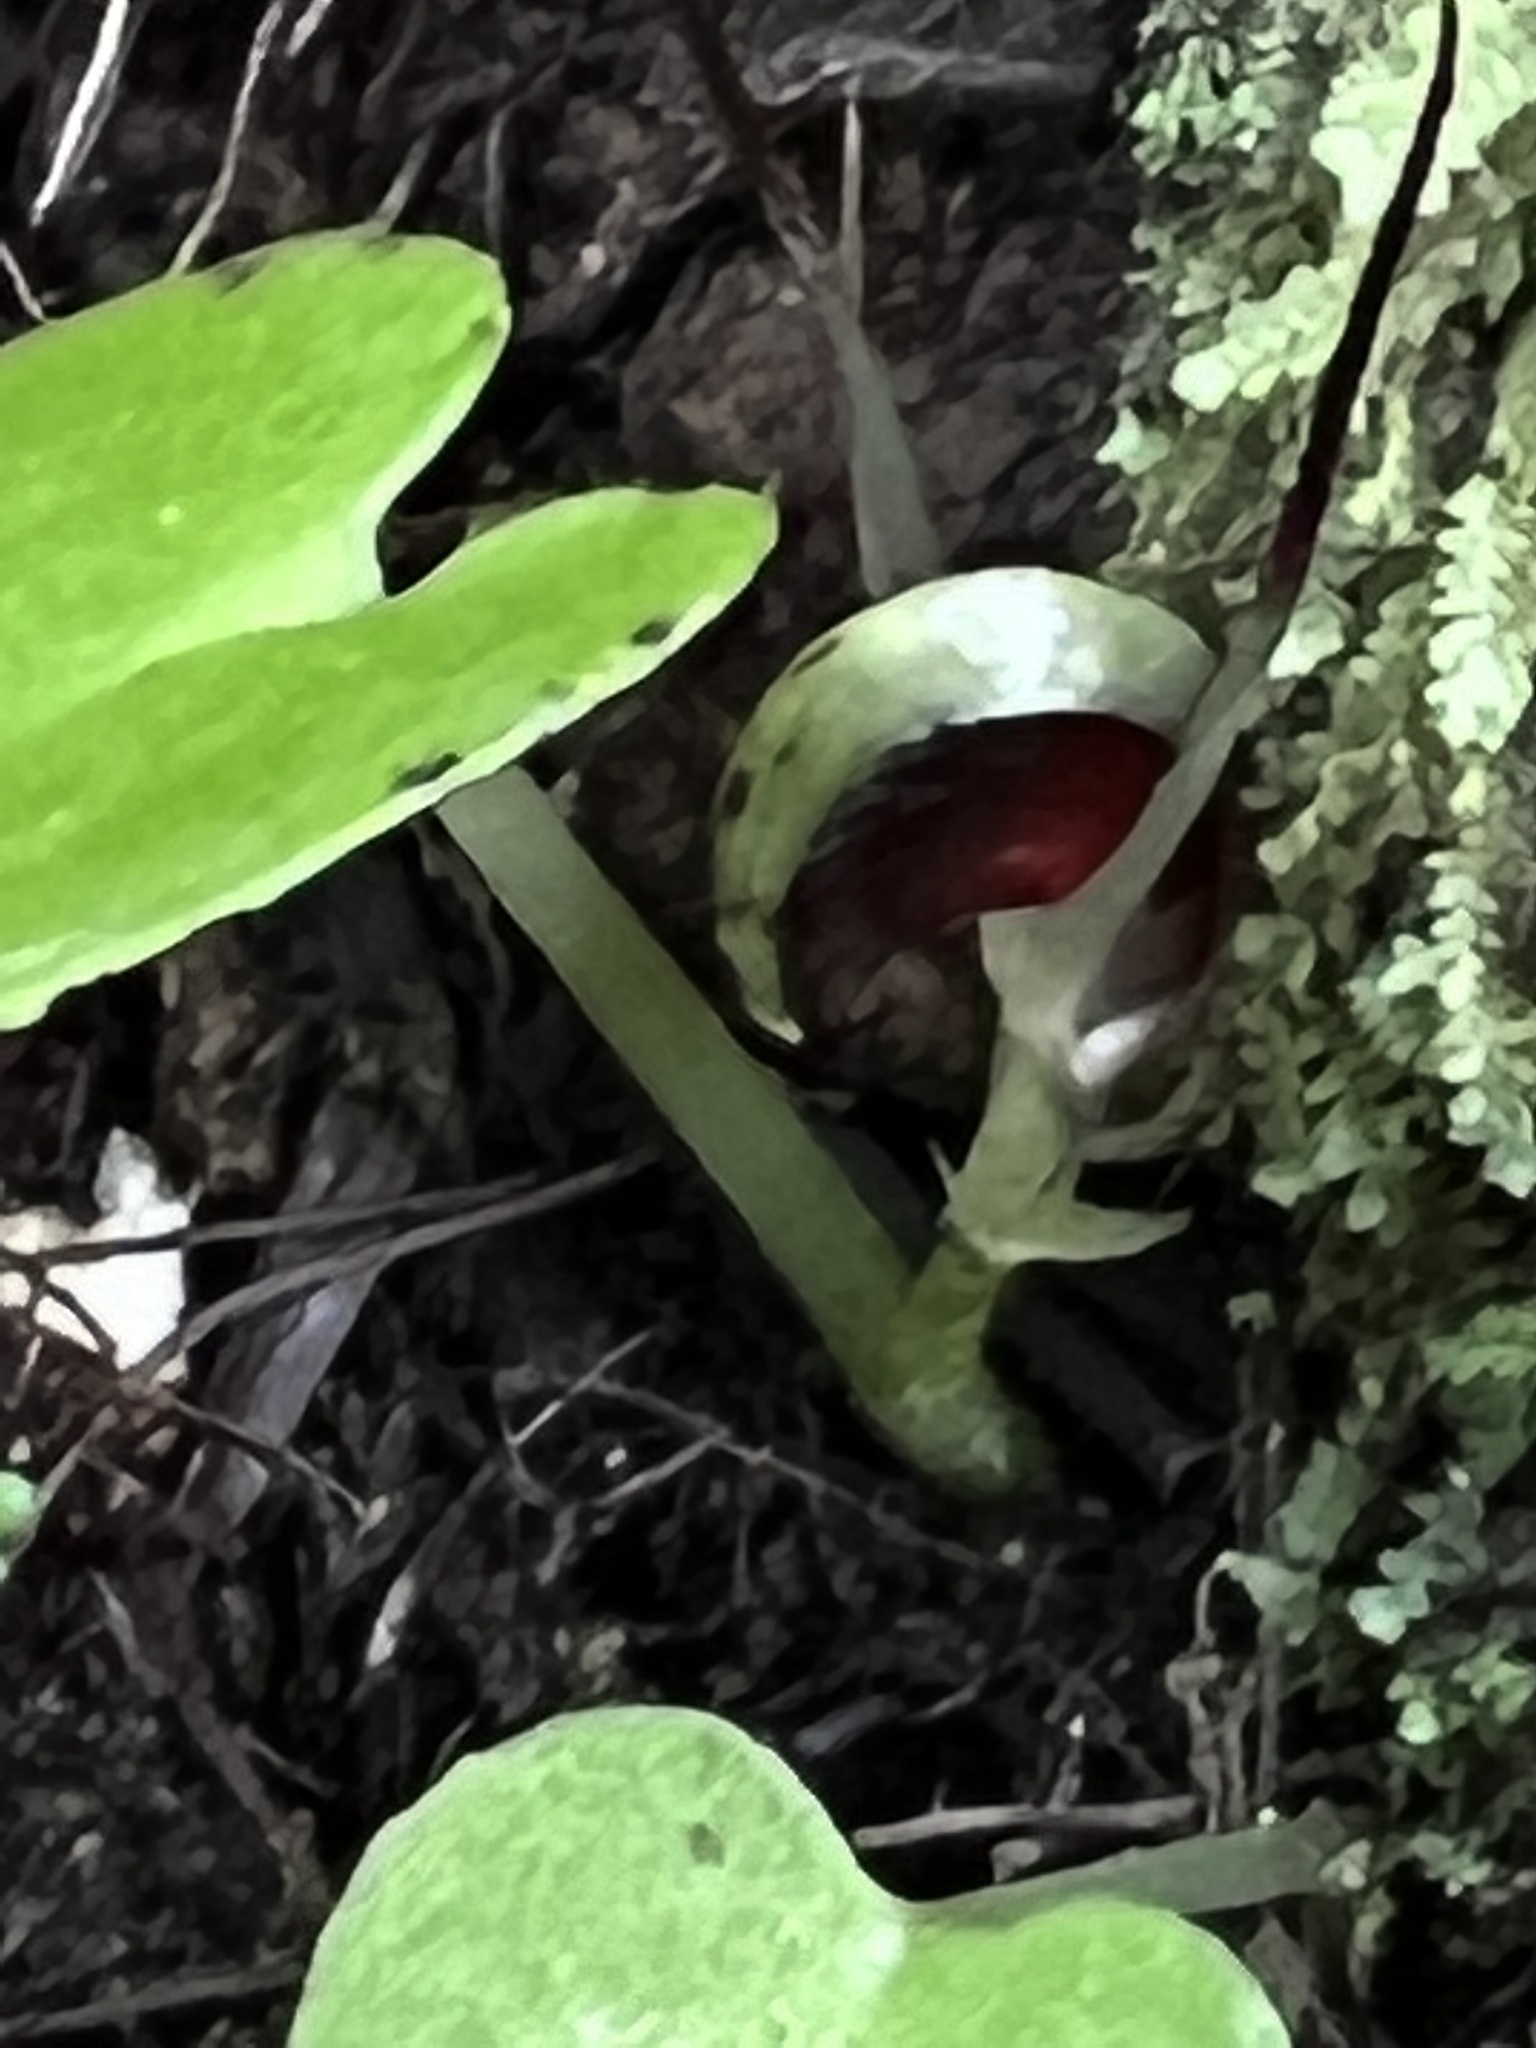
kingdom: Plantae
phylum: Tracheophyta
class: Liliopsida
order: Asparagales
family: Orchidaceae
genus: Corybas
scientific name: Corybas macranthus
